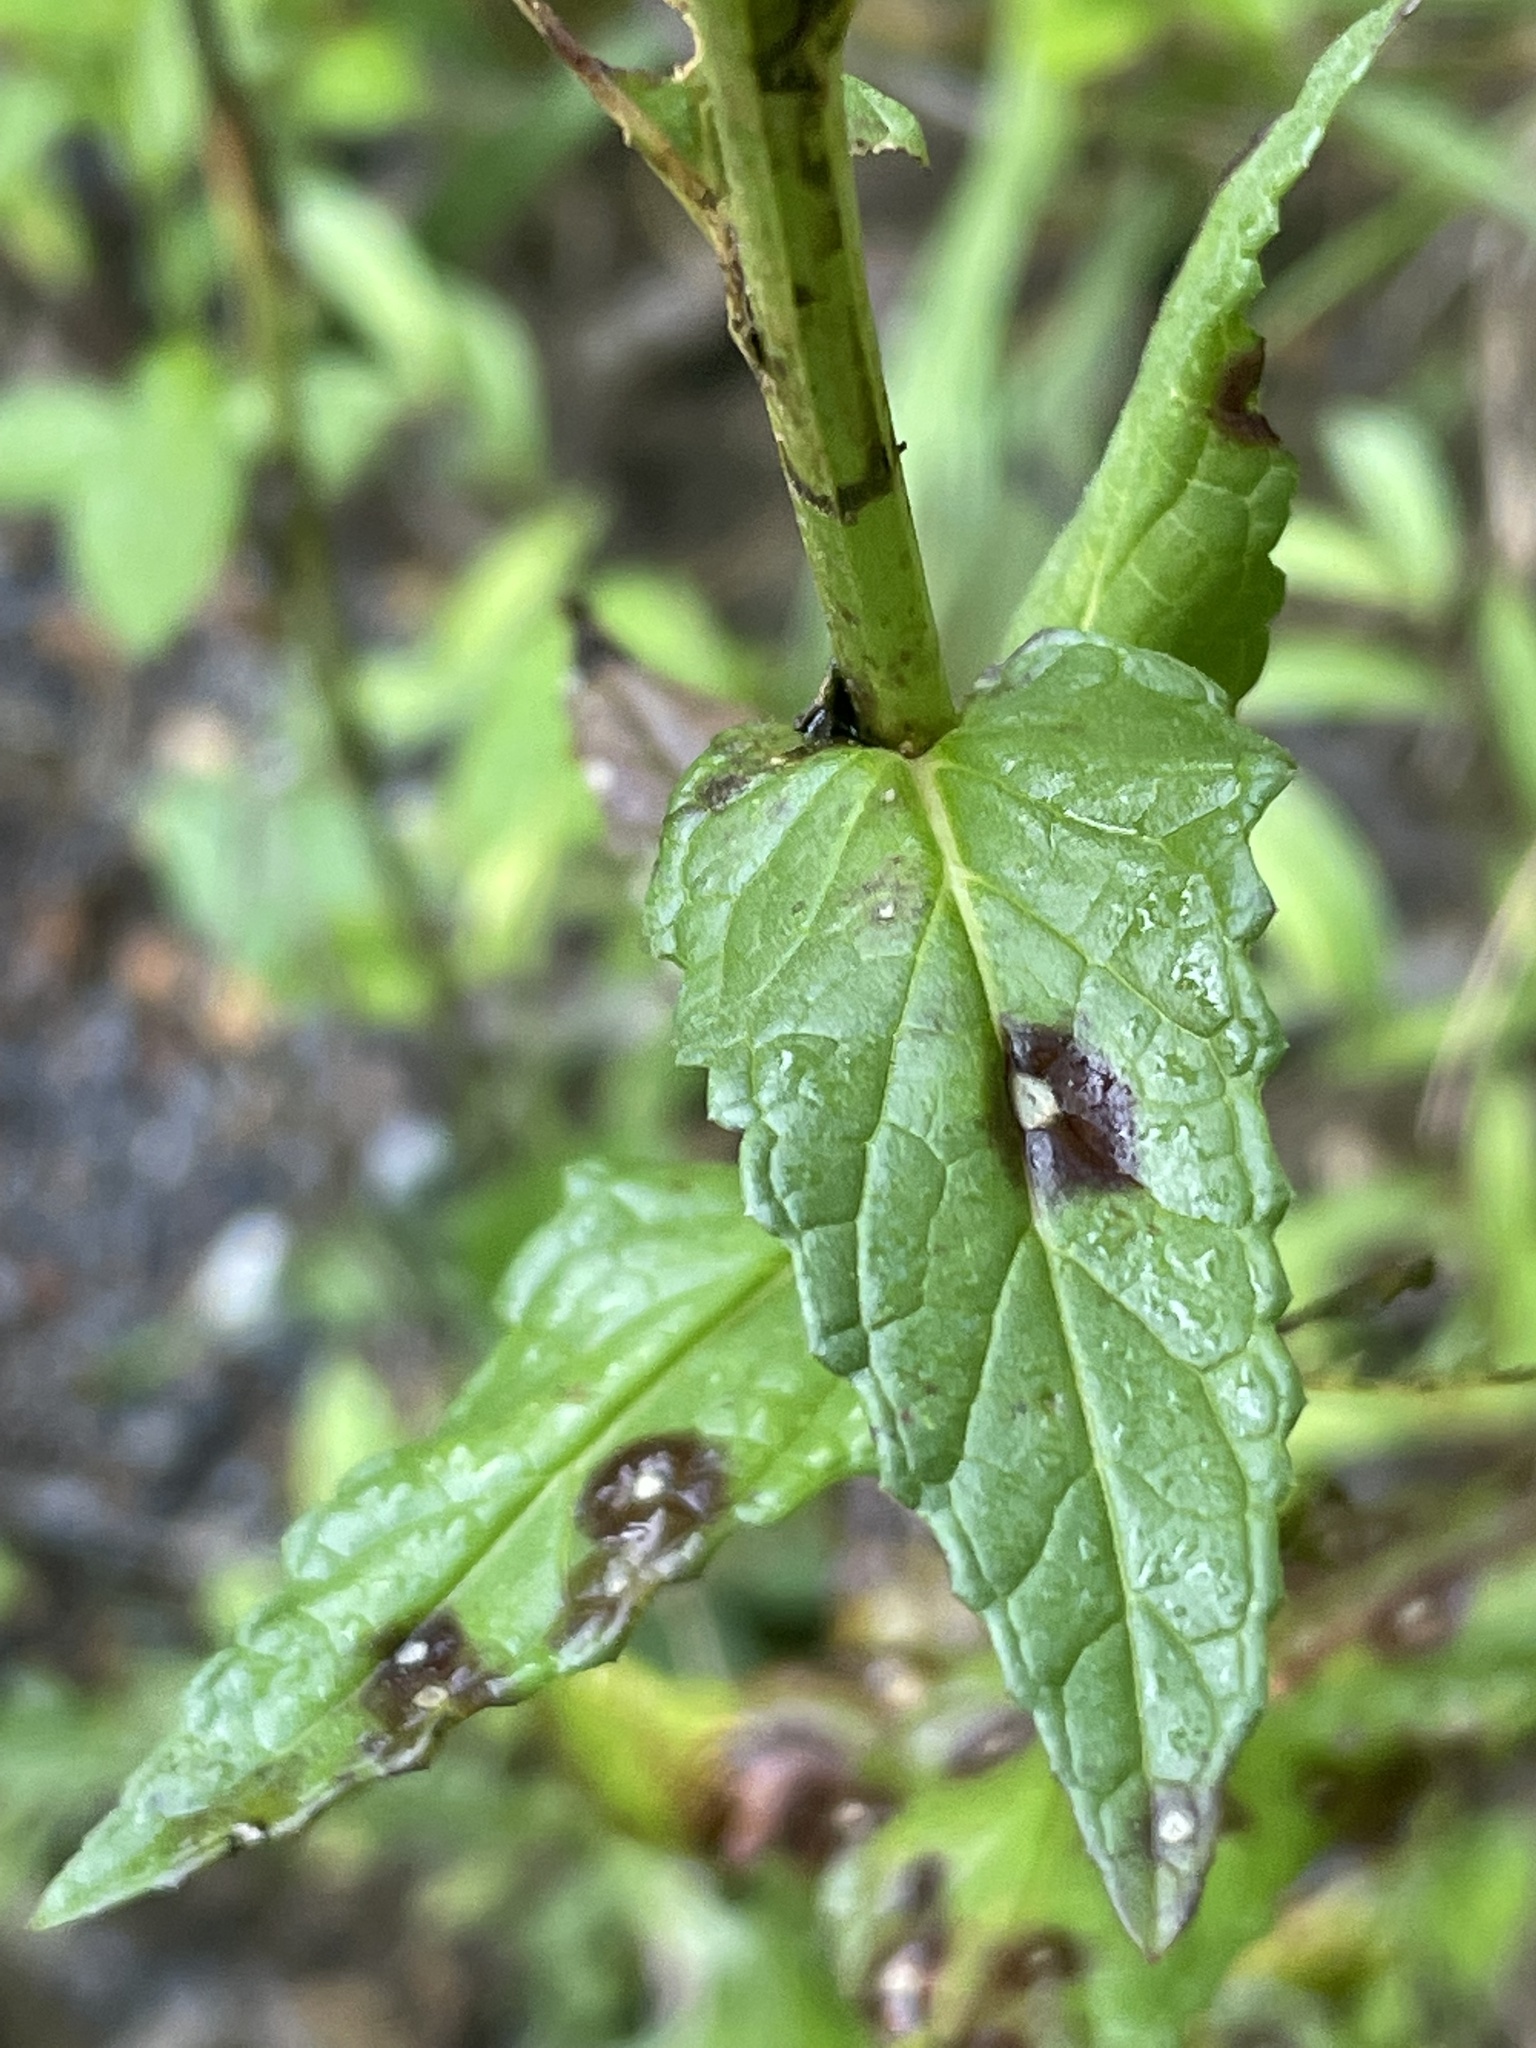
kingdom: Plantae
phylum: Tracheophyta
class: Magnoliopsida
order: Lamiales
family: Scrophulariaceae
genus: Verbascum
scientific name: Verbascum blattaria
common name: Moth mullein
